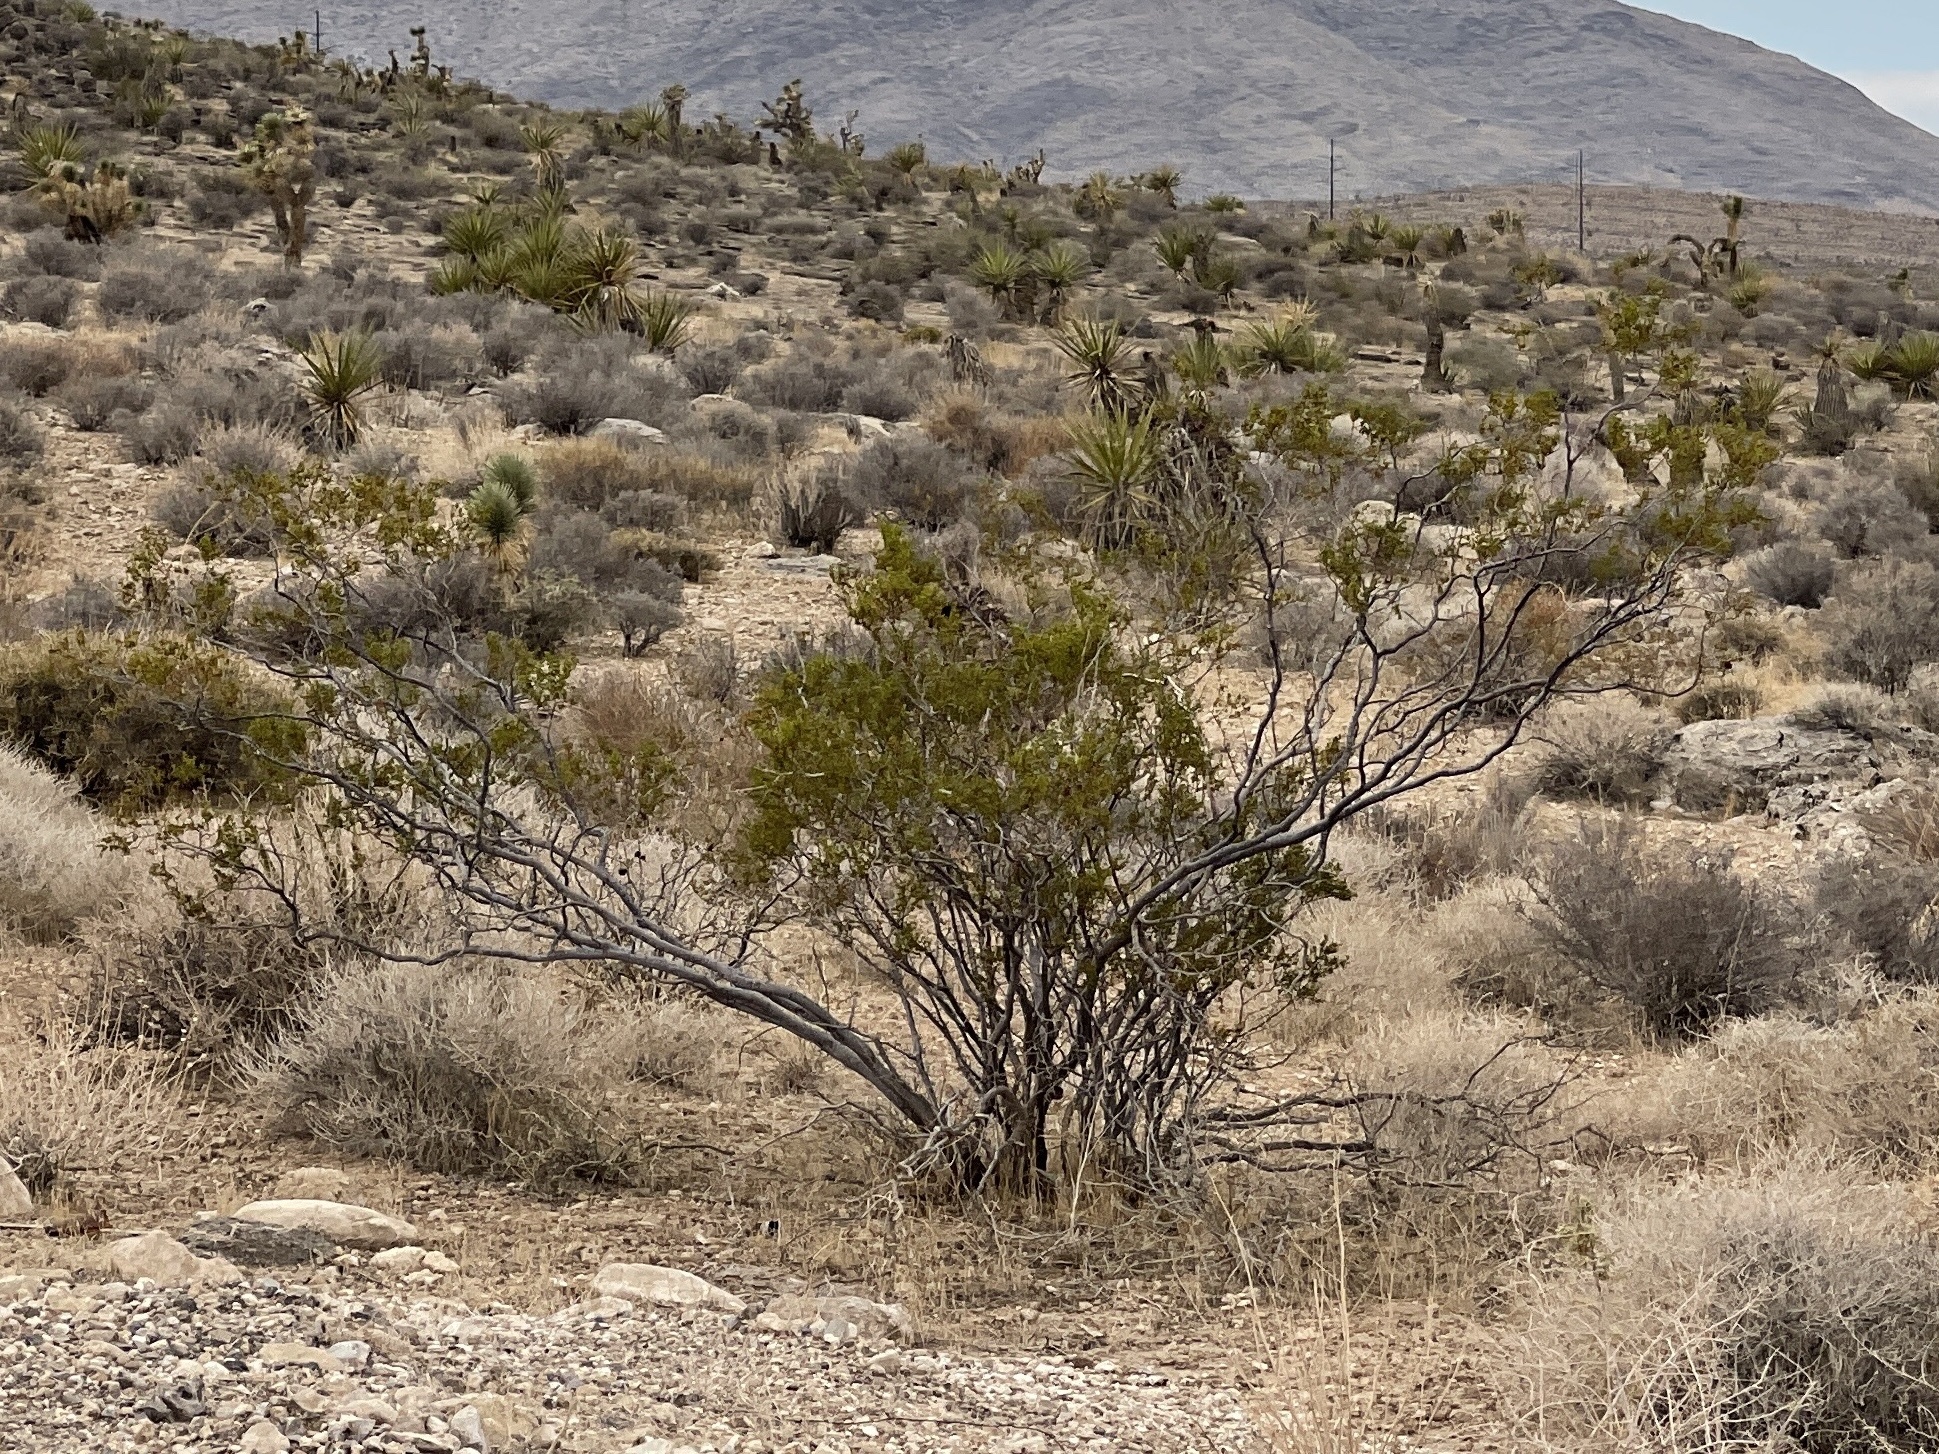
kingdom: Plantae
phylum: Tracheophyta
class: Magnoliopsida
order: Zygophyllales
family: Zygophyllaceae
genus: Larrea
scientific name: Larrea tridentata
